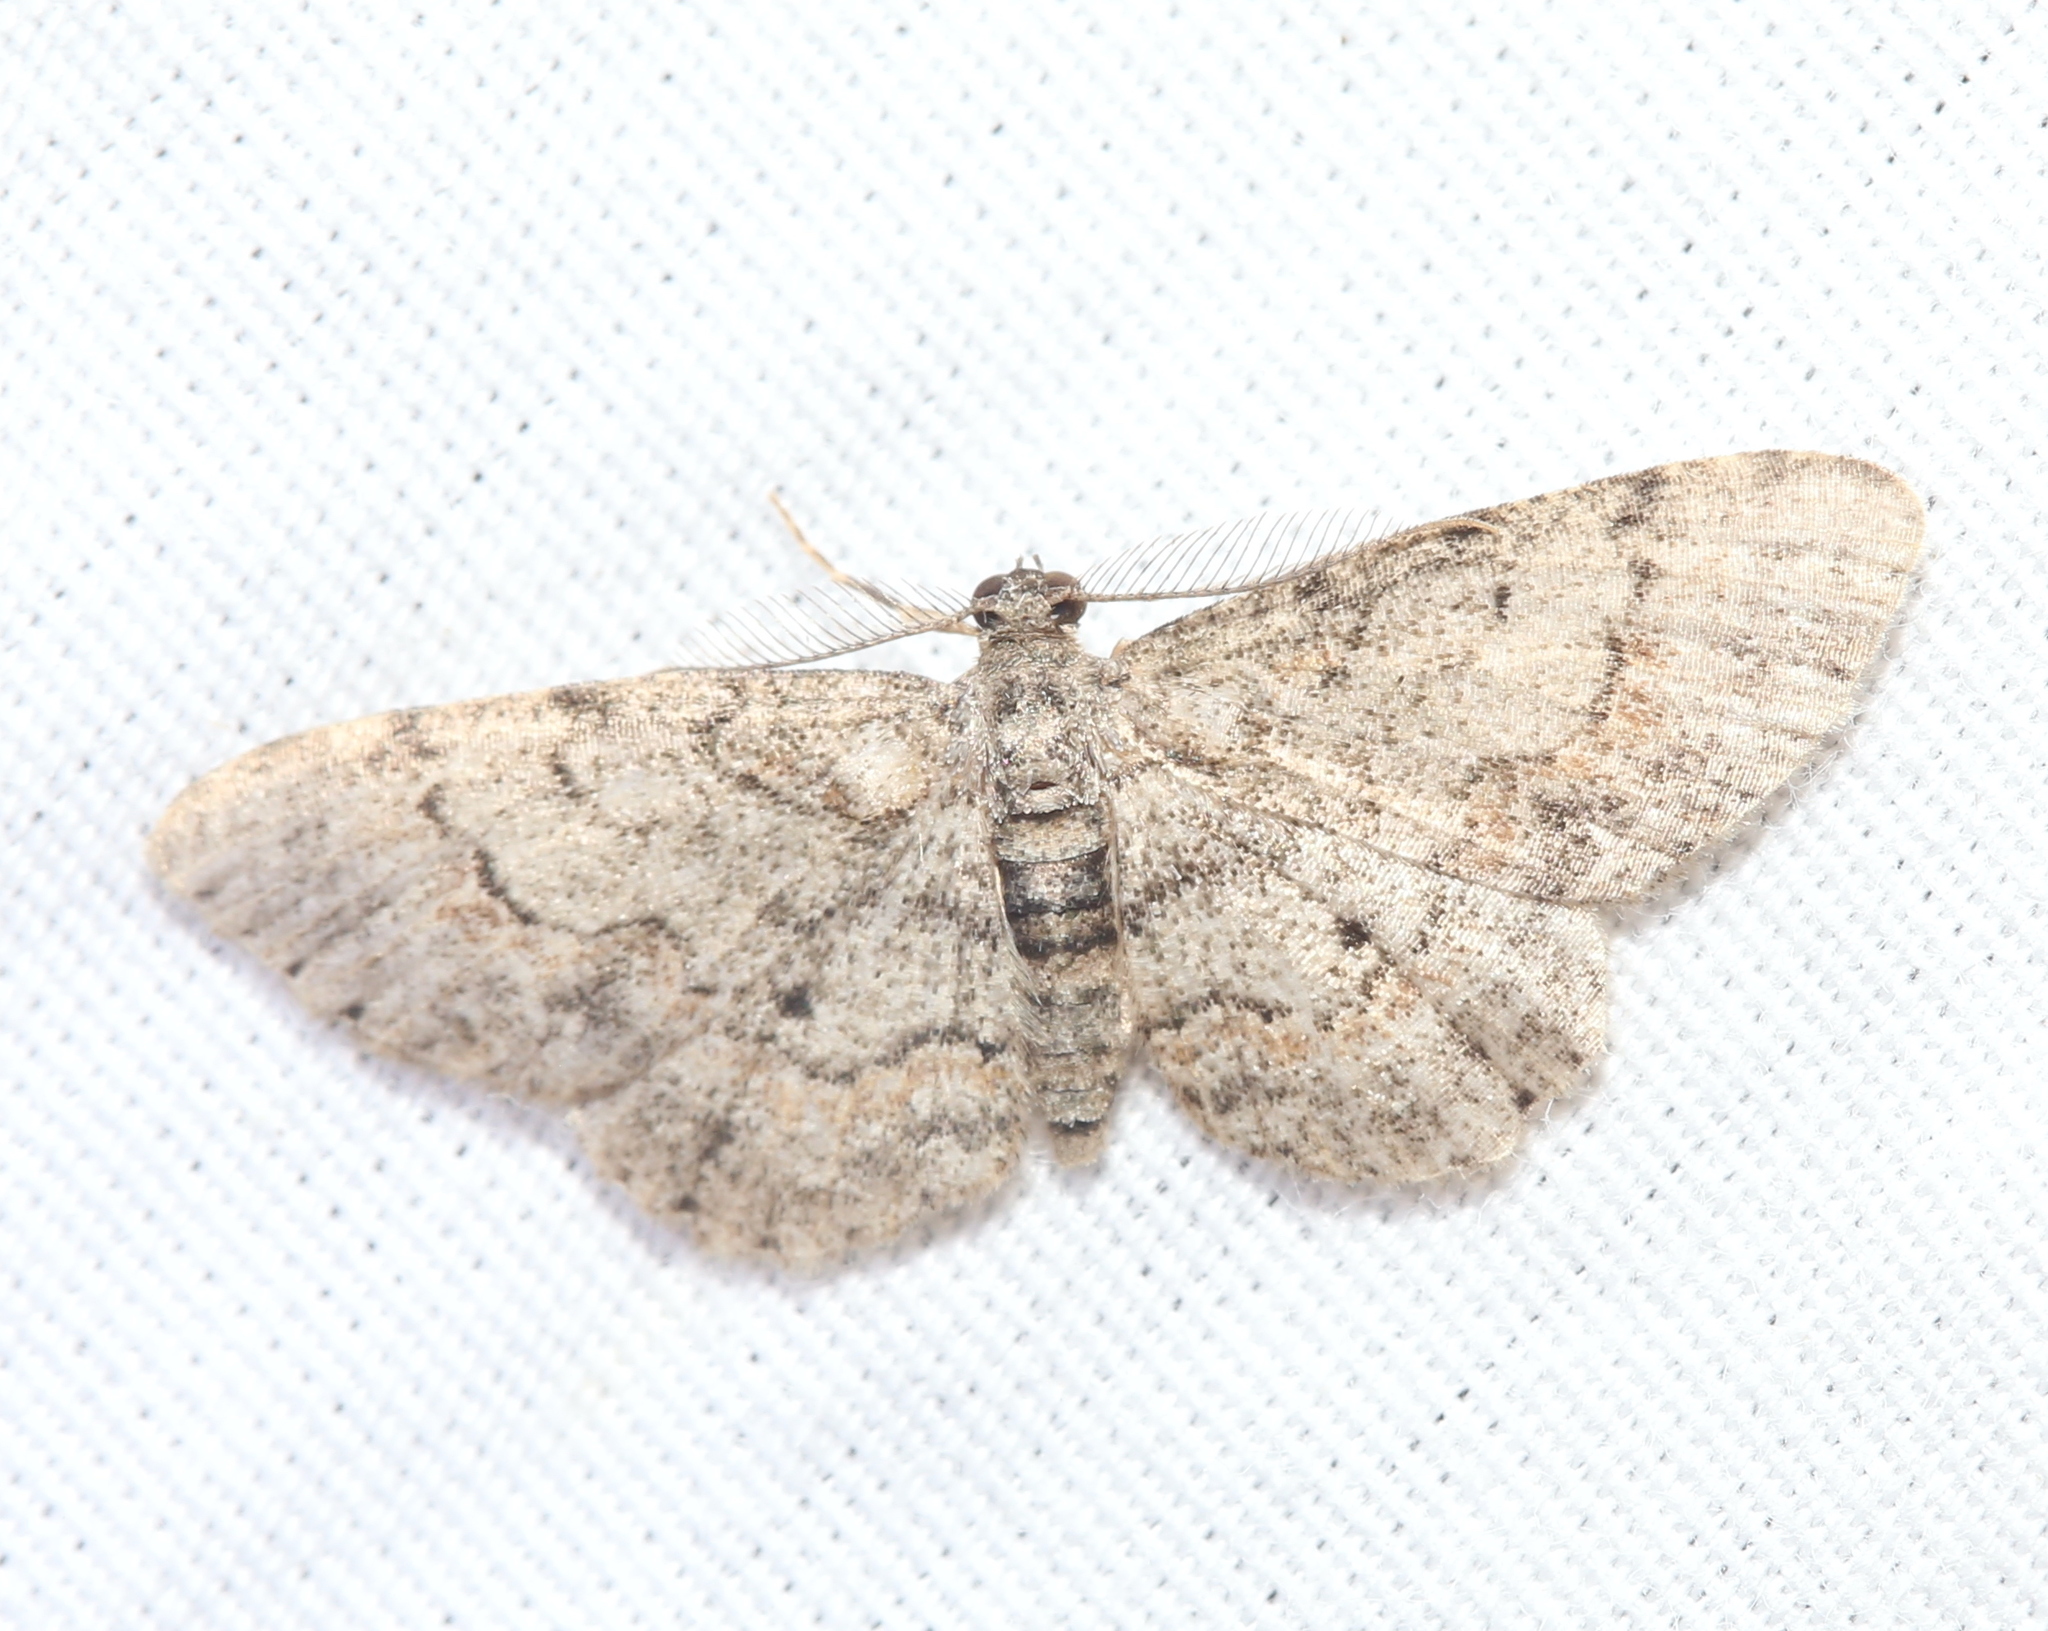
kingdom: Animalia
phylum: Arthropoda
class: Insecta
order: Lepidoptera
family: Geometridae
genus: Glenoides
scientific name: Glenoides texanaria
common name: Texas gray
